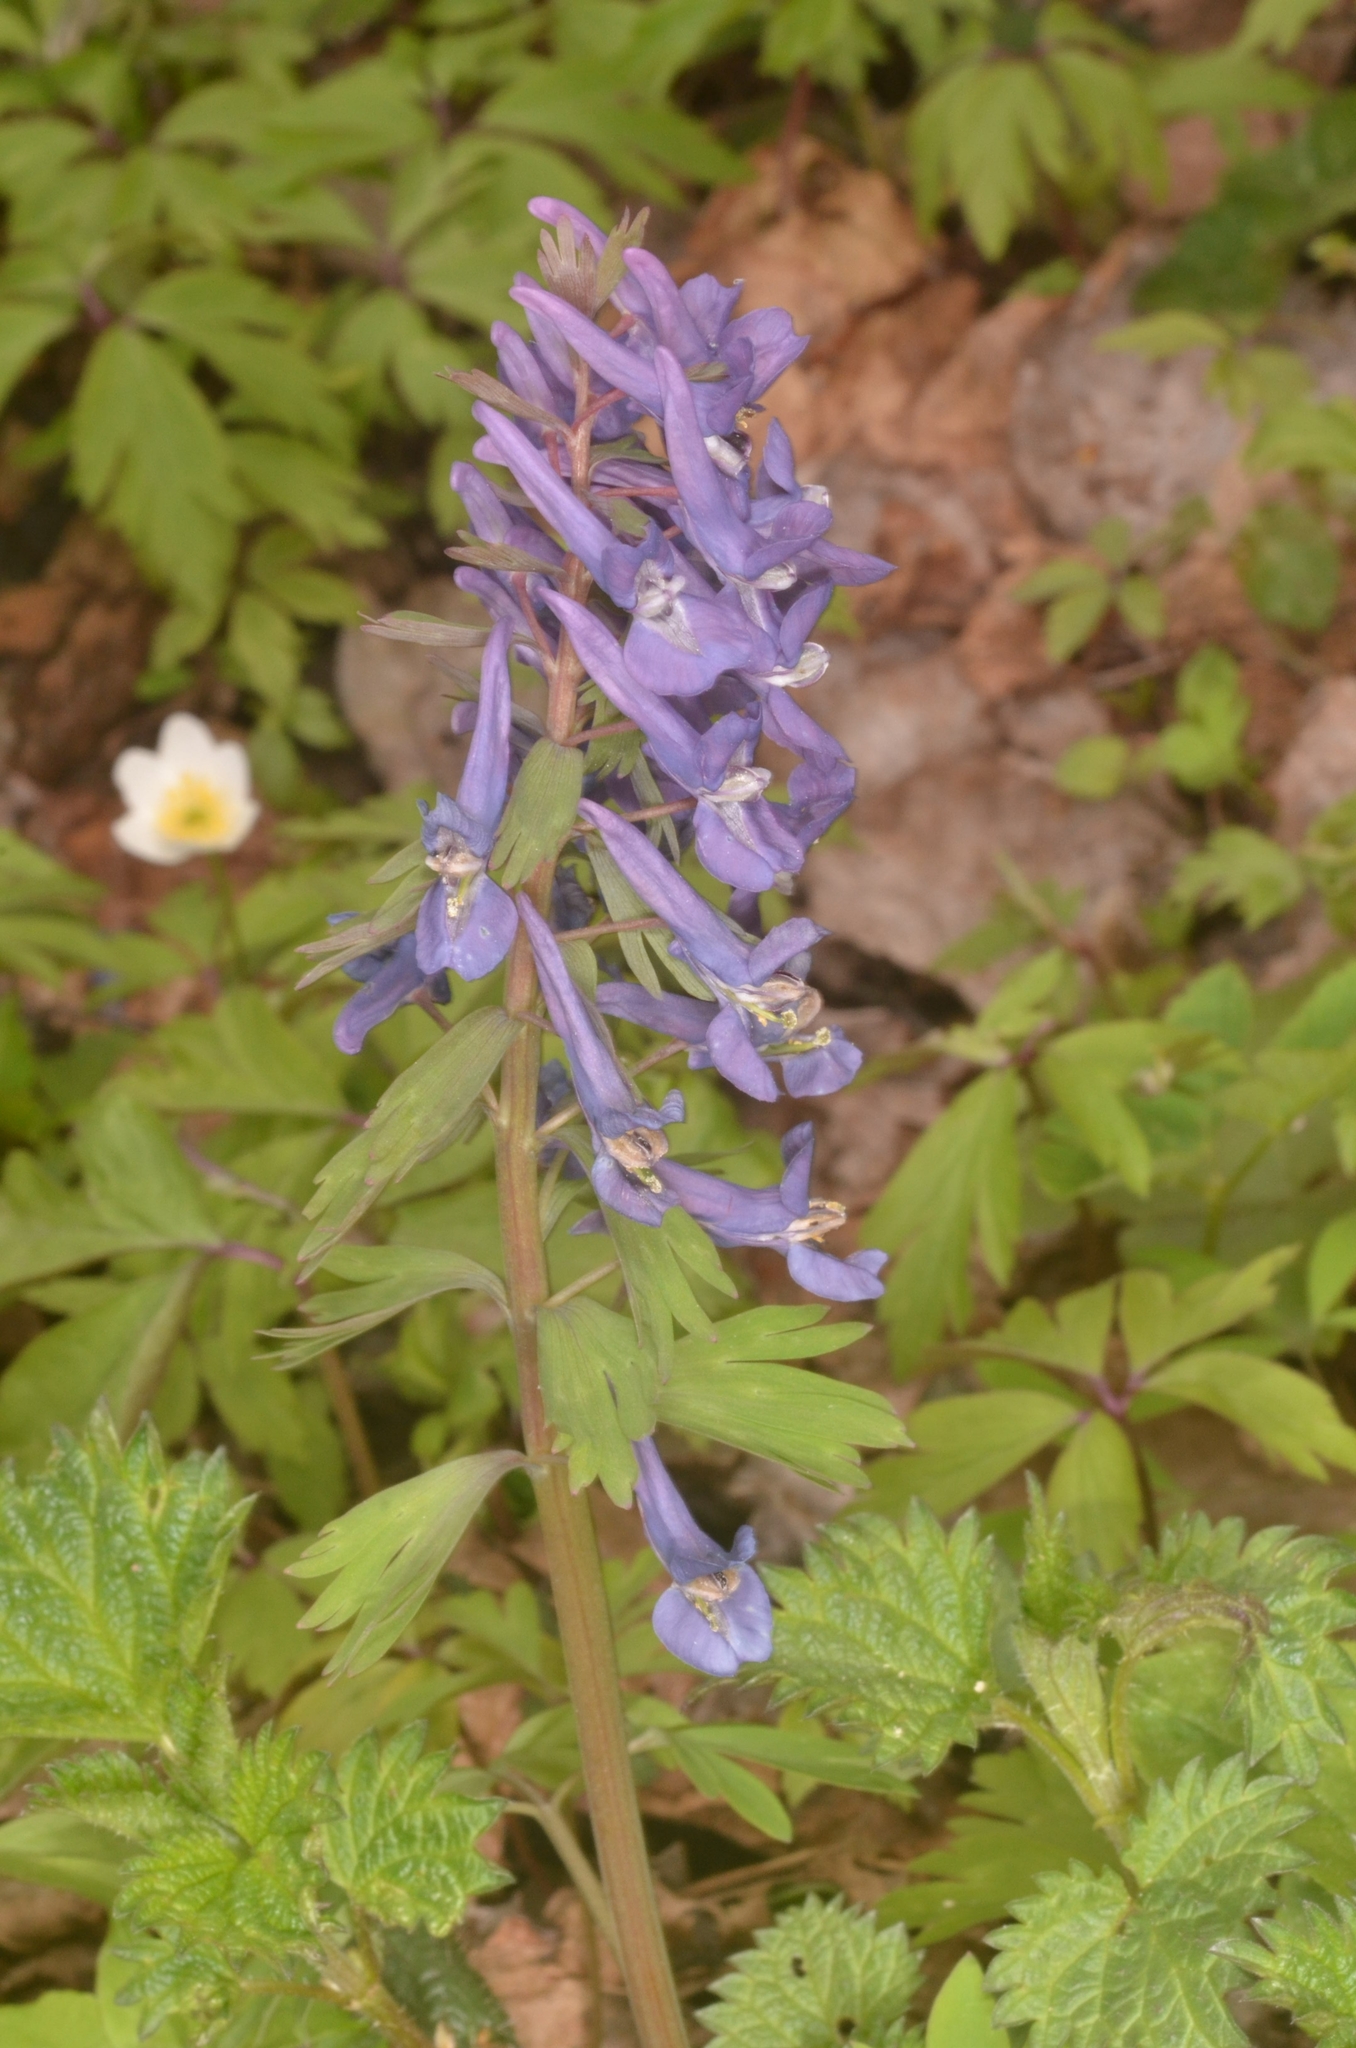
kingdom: Plantae
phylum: Tracheophyta
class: Magnoliopsida
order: Ranunculales
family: Papaveraceae
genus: Corydalis
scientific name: Corydalis solida
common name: Bird-in-a-bush
